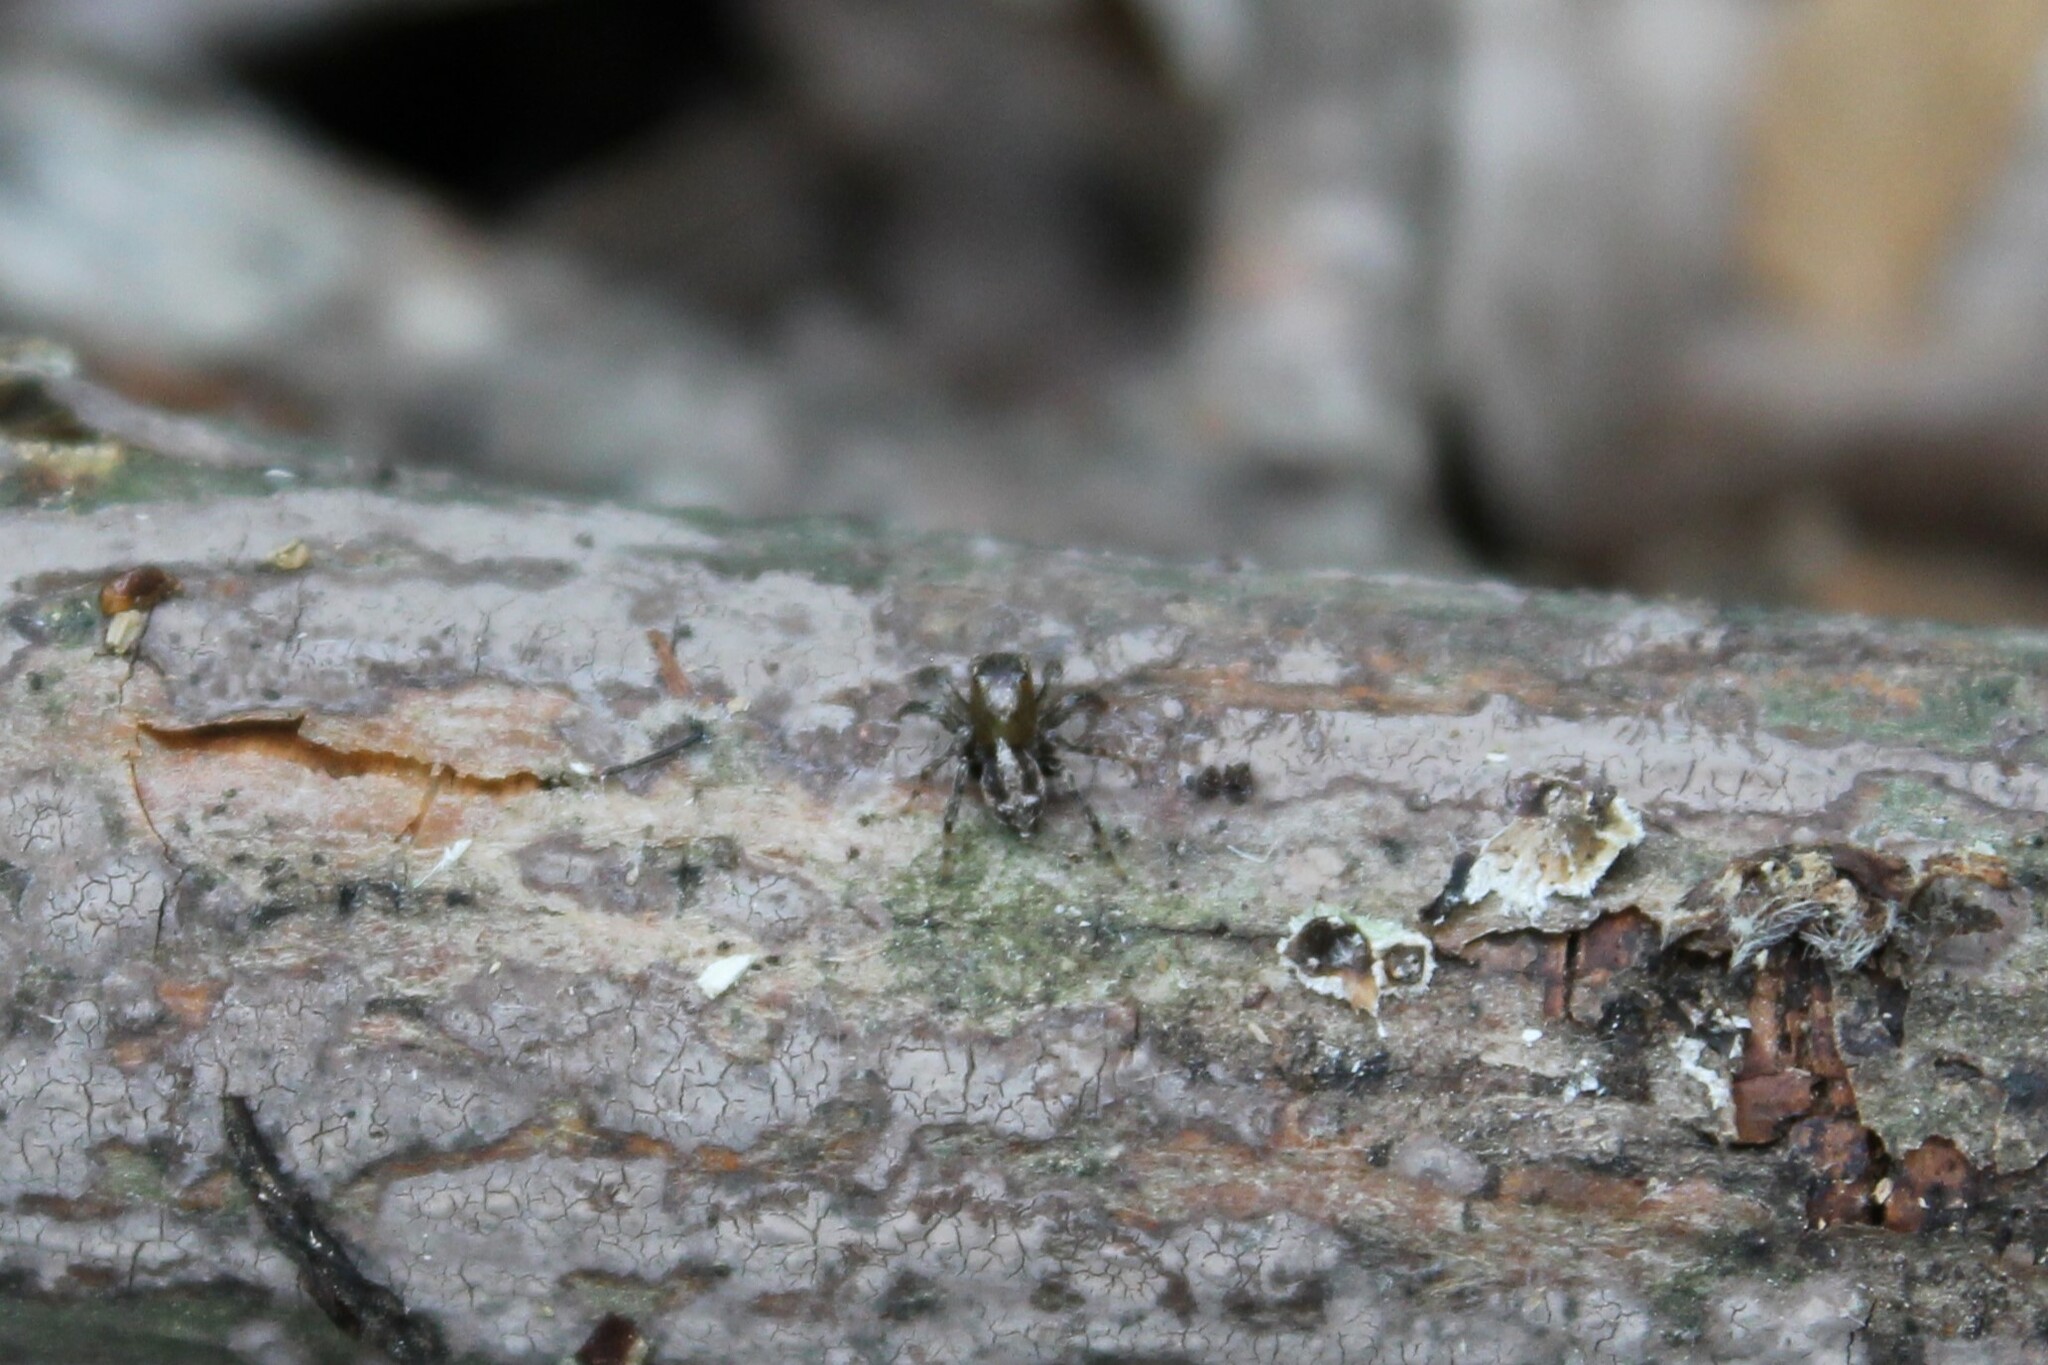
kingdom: Animalia
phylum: Arthropoda
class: Arachnida
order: Araneae
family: Salticidae
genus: Naphrys
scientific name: Naphrys pulex
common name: Flea jumping spider
